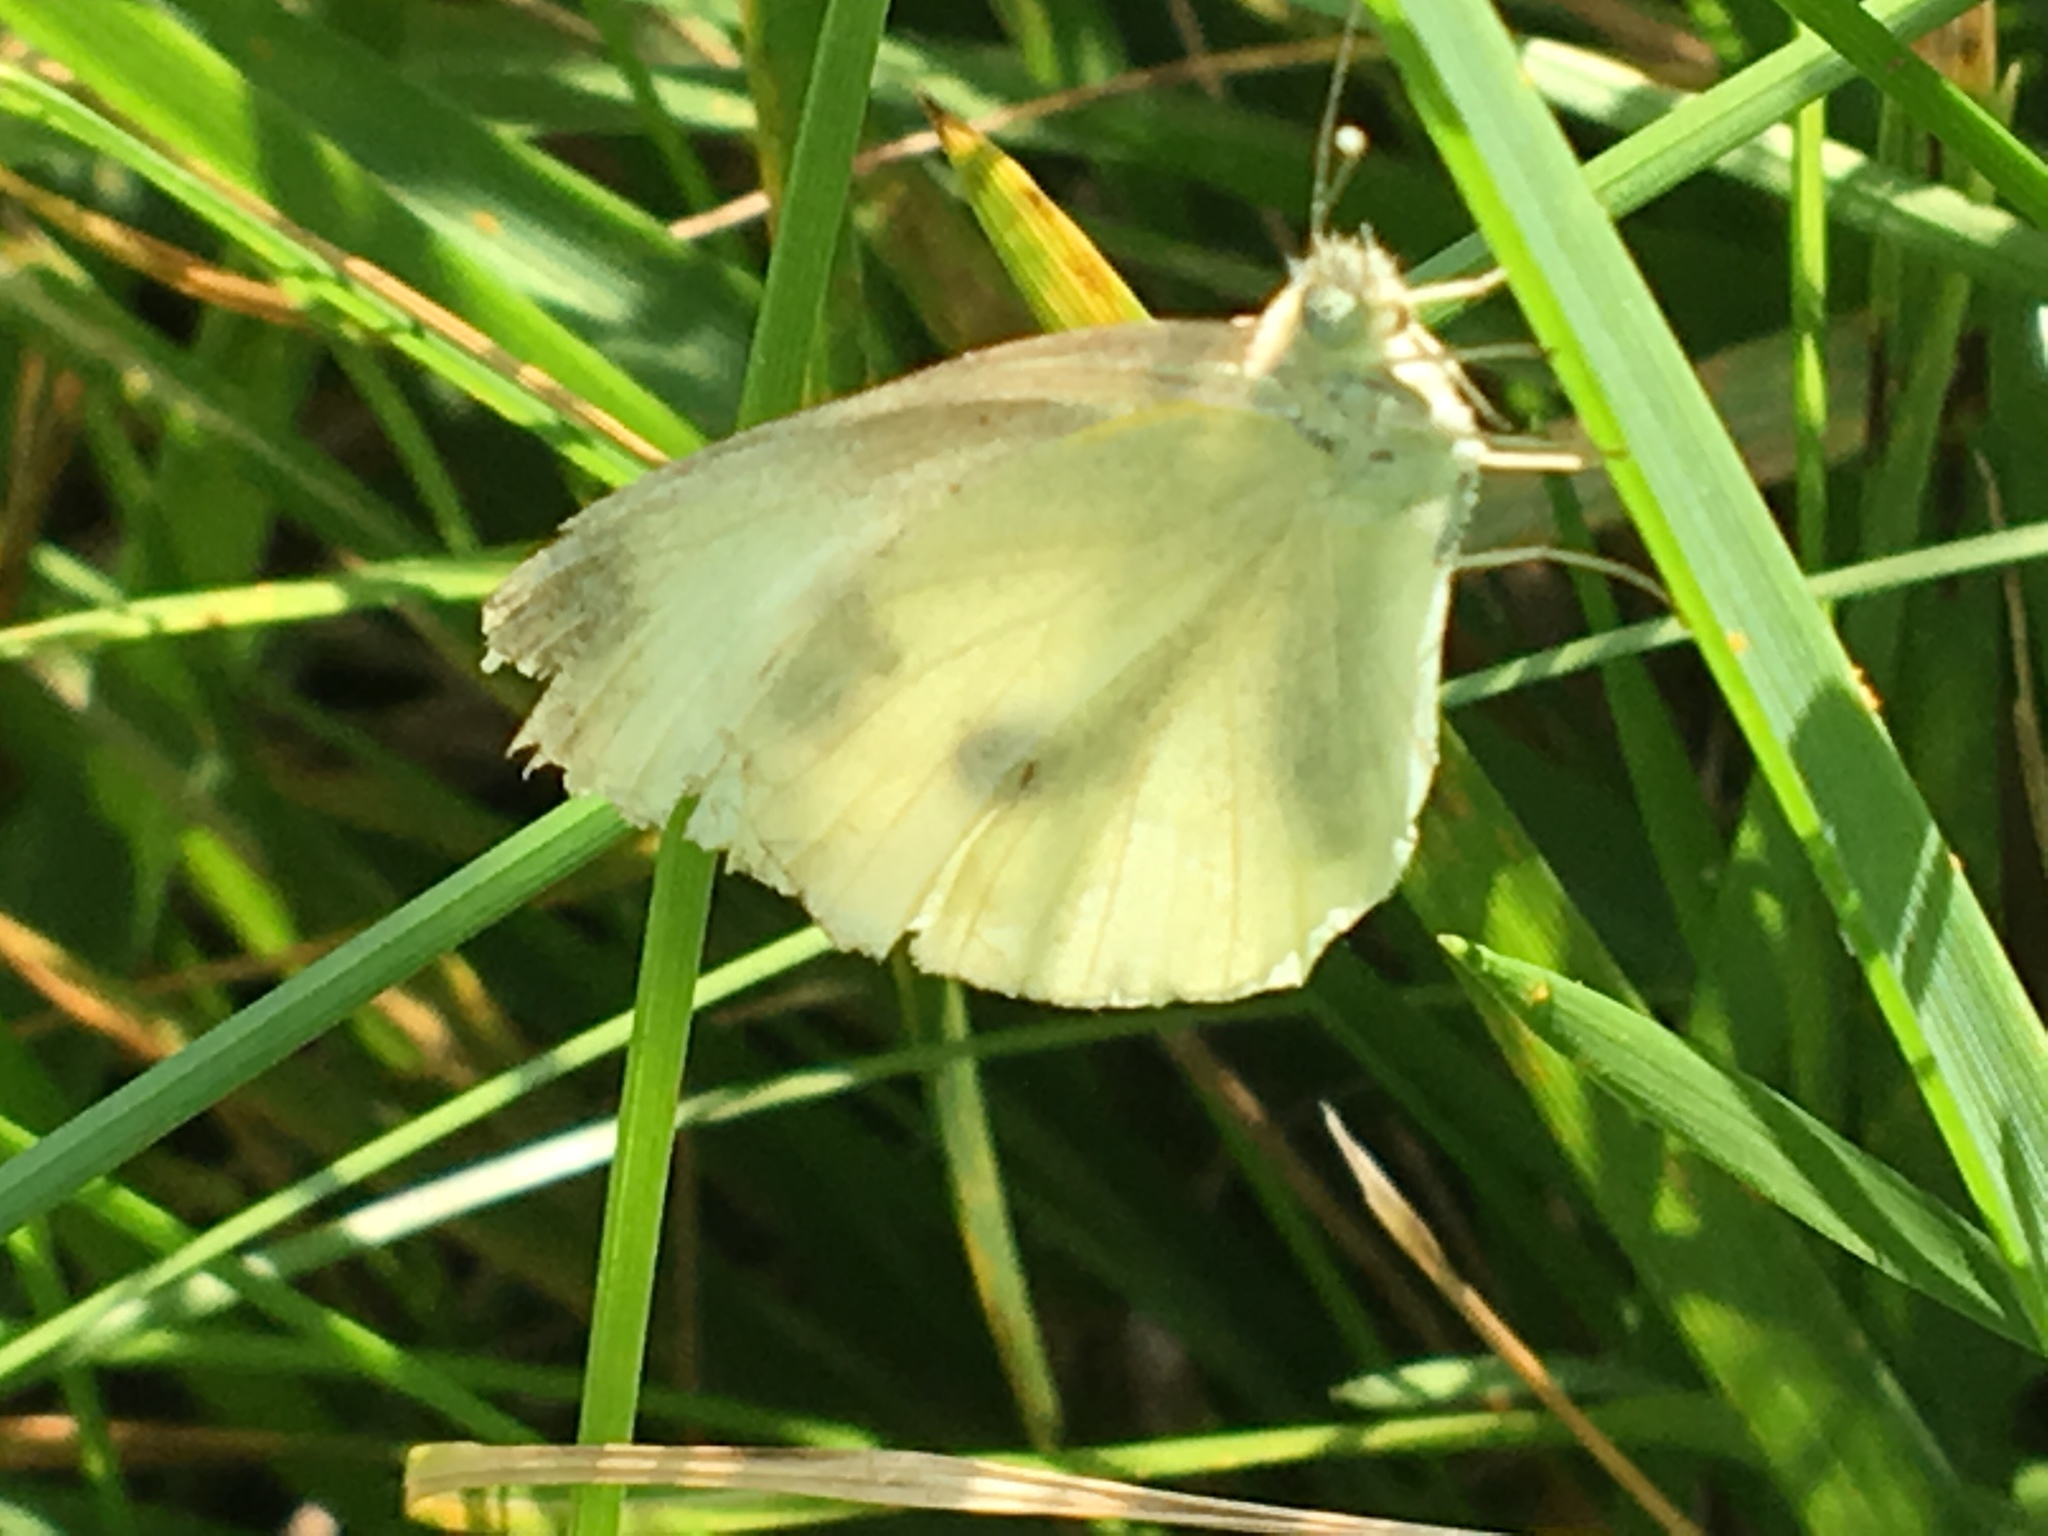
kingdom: Animalia
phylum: Arthropoda
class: Insecta
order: Lepidoptera
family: Pieridae
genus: Pieris
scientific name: Pieris rapae
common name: Small white
